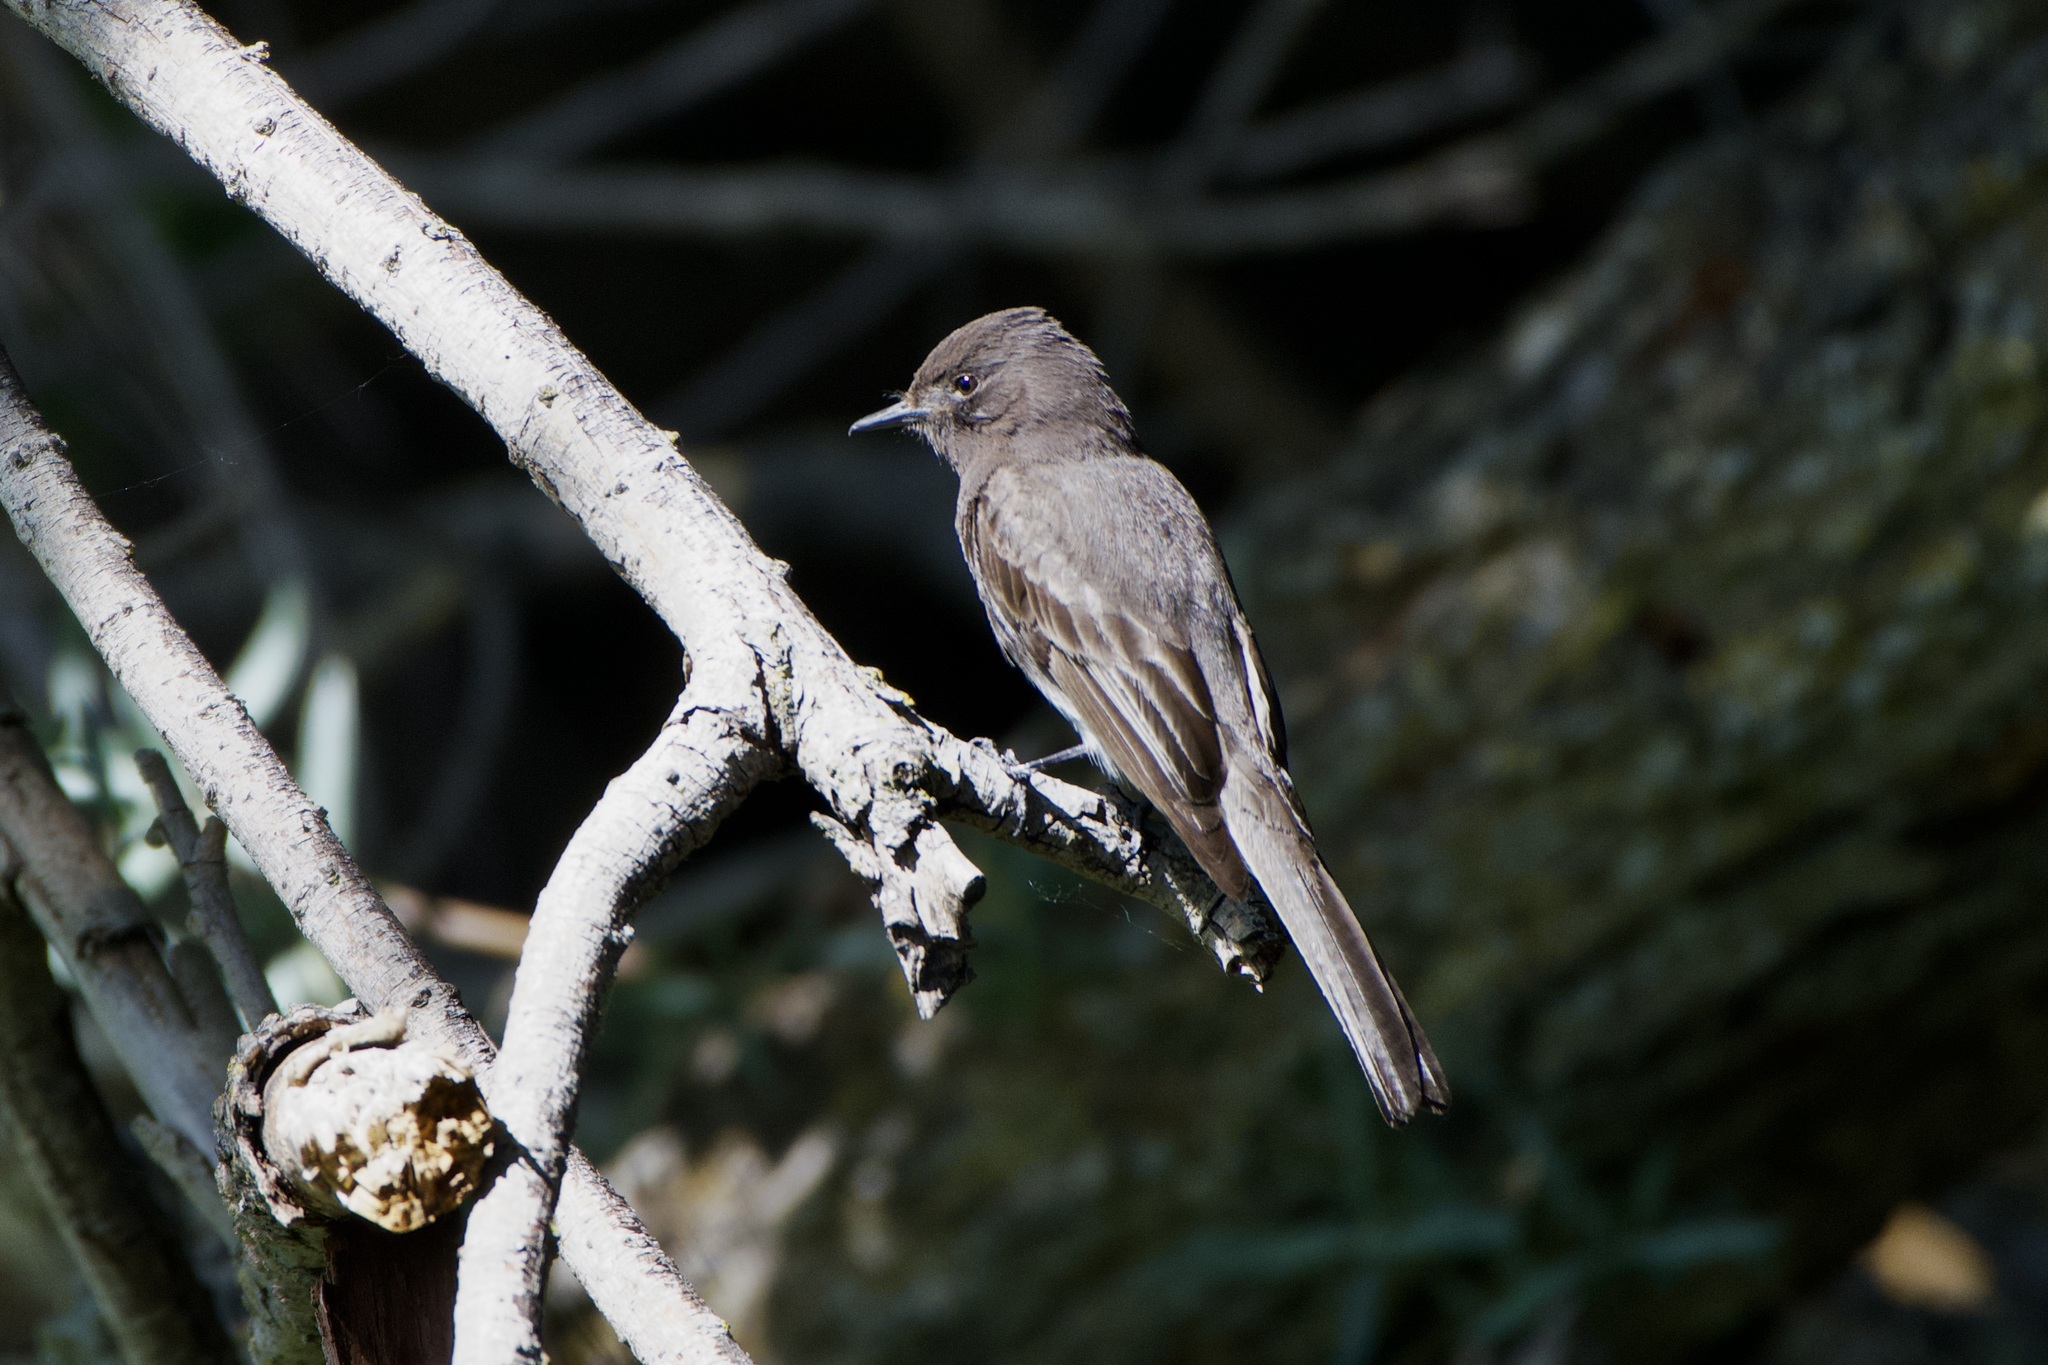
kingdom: Animalia
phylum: Chordata
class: Aves
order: Passeriformes
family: Tyrannidae
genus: Sayornis
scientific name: Sayornis nigricans
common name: Black phoebe
